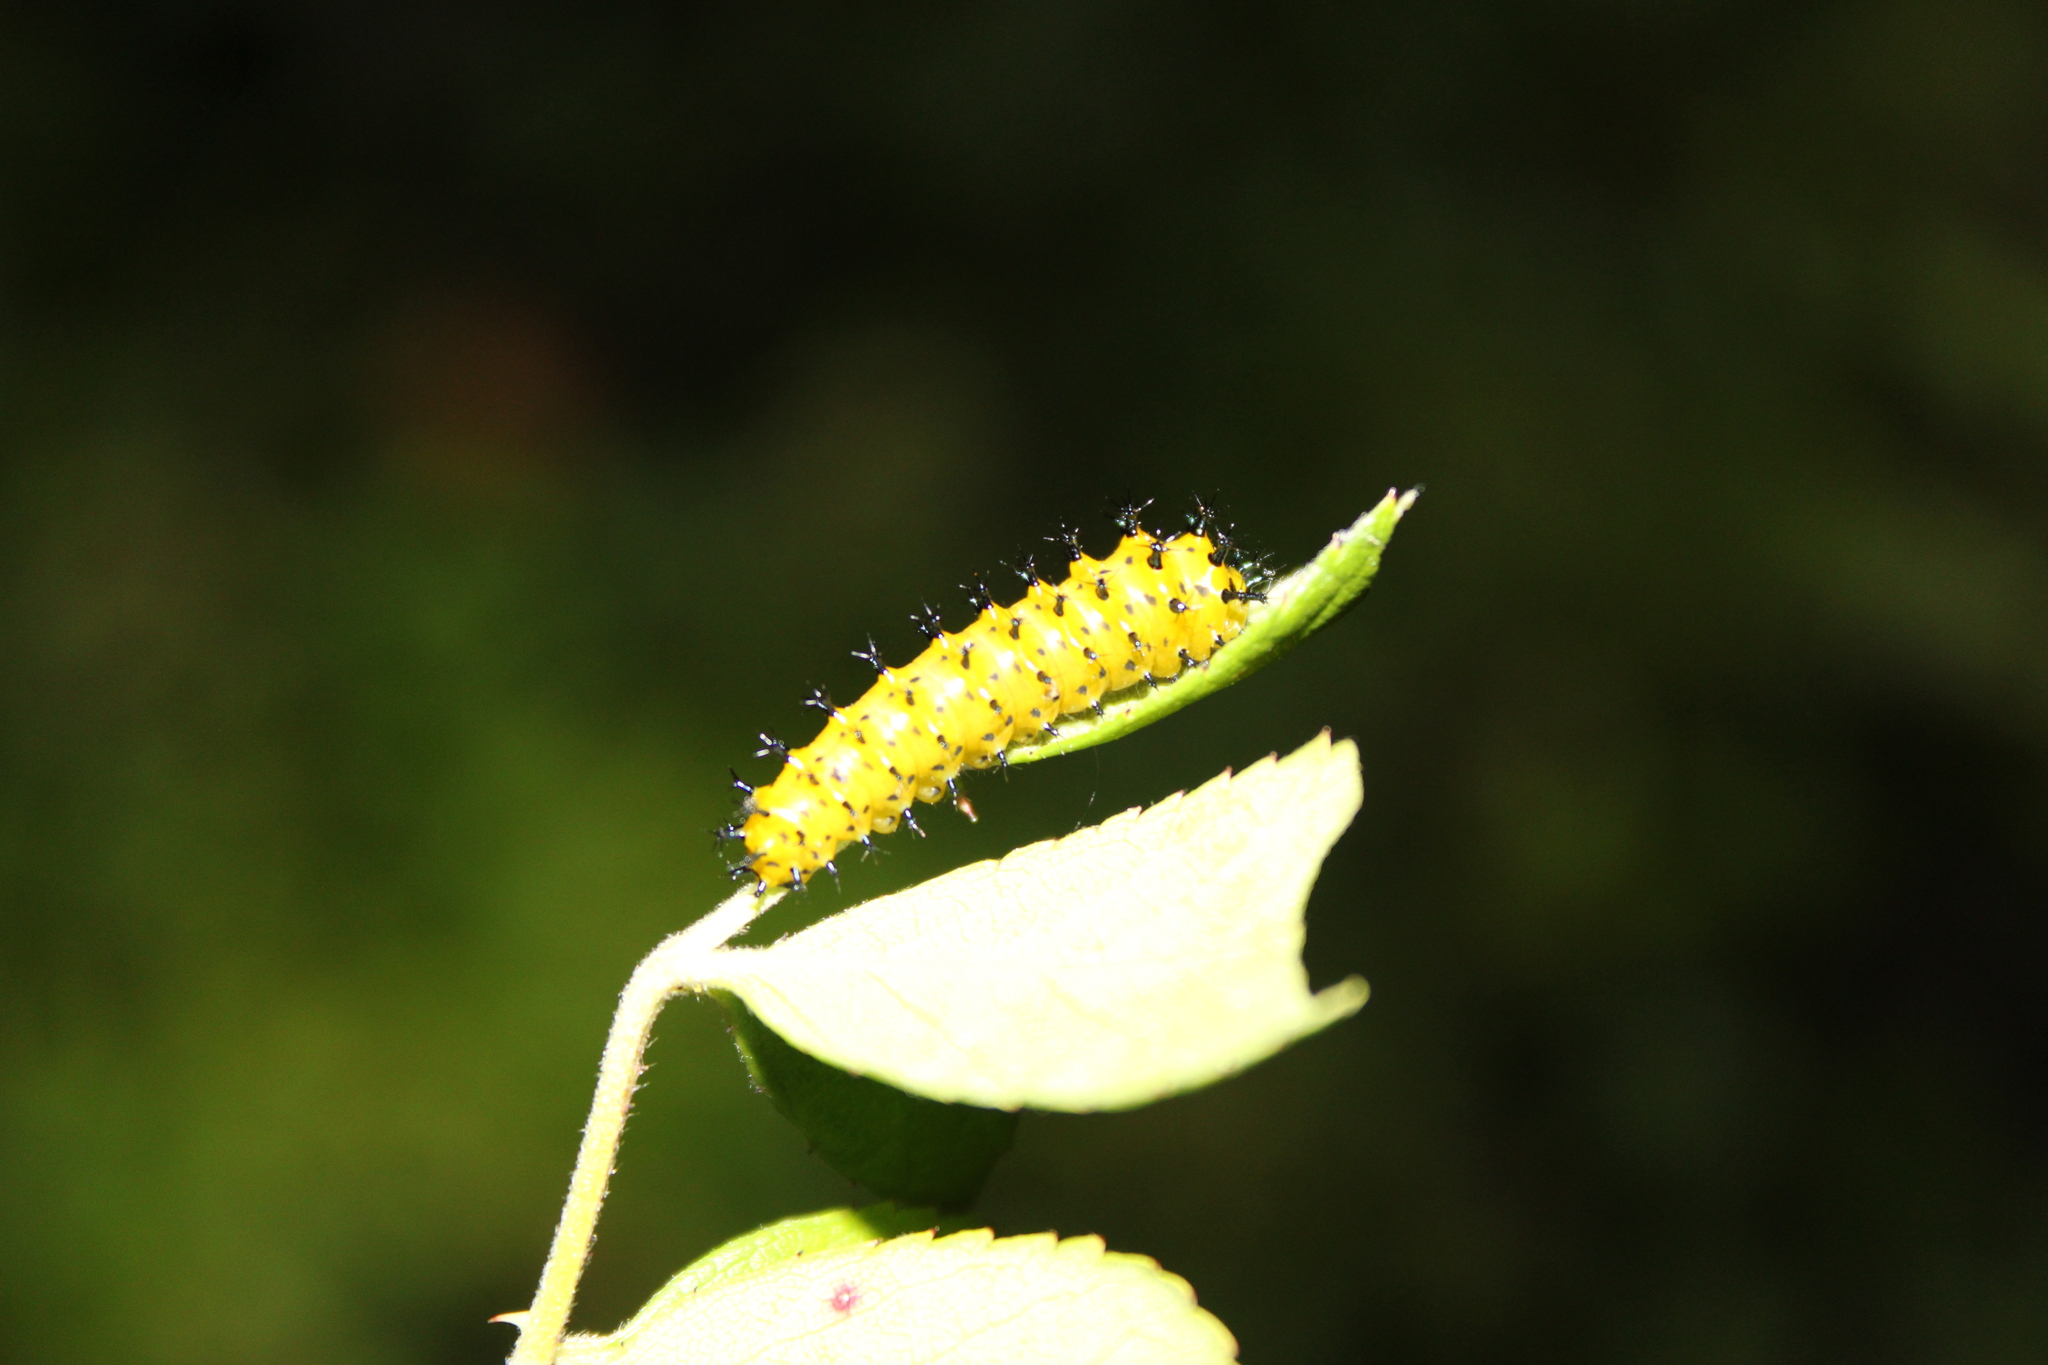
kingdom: Animalia
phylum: Arthropoda
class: Insecta
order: Lepidoptera
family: Saturniidae
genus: Hyalophora
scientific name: Hyalophora cecropia
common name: Cecropia silkmoth
